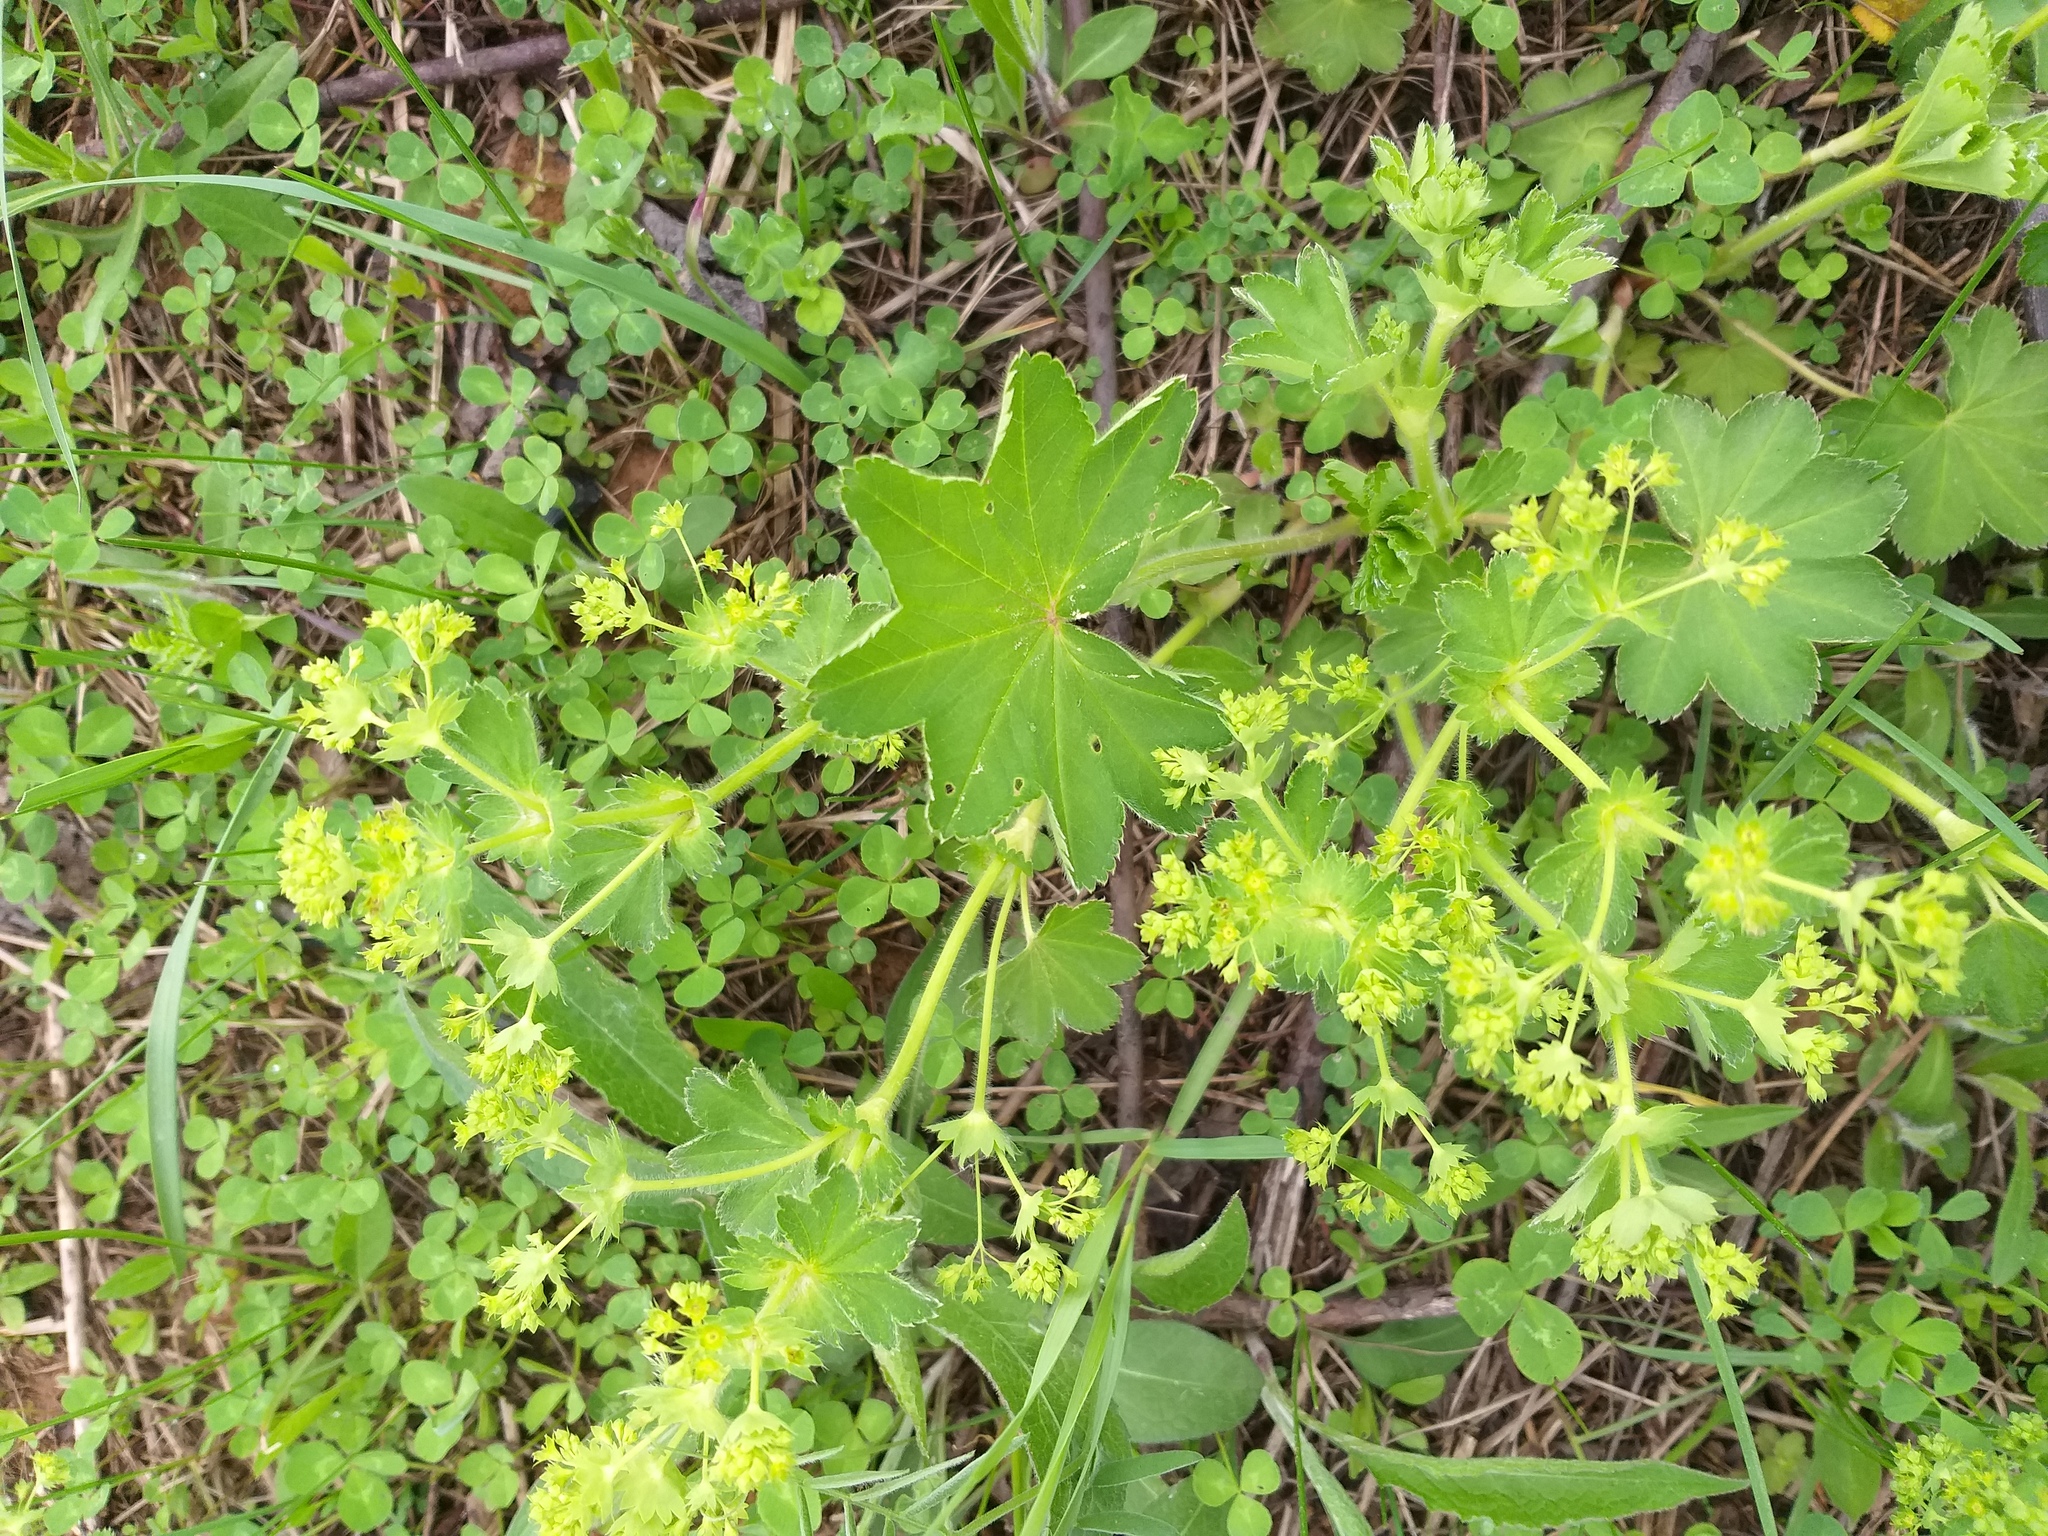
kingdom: Plantae
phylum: Tracheophyta
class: Magnoliopsida
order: Rosales
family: Rosaceae
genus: Alchemilla
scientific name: Alchemilla micans
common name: Gleaming lady's mantle
